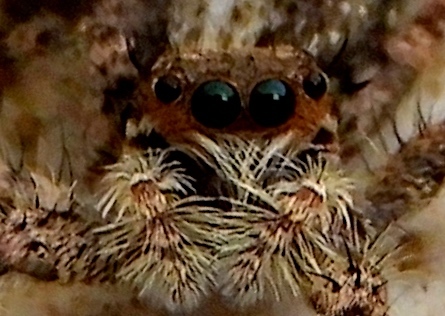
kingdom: Animalia
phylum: Arthropoda
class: Arachnida
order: Araneae
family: Salticidae
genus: Balmaceda
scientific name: Balmaceda
